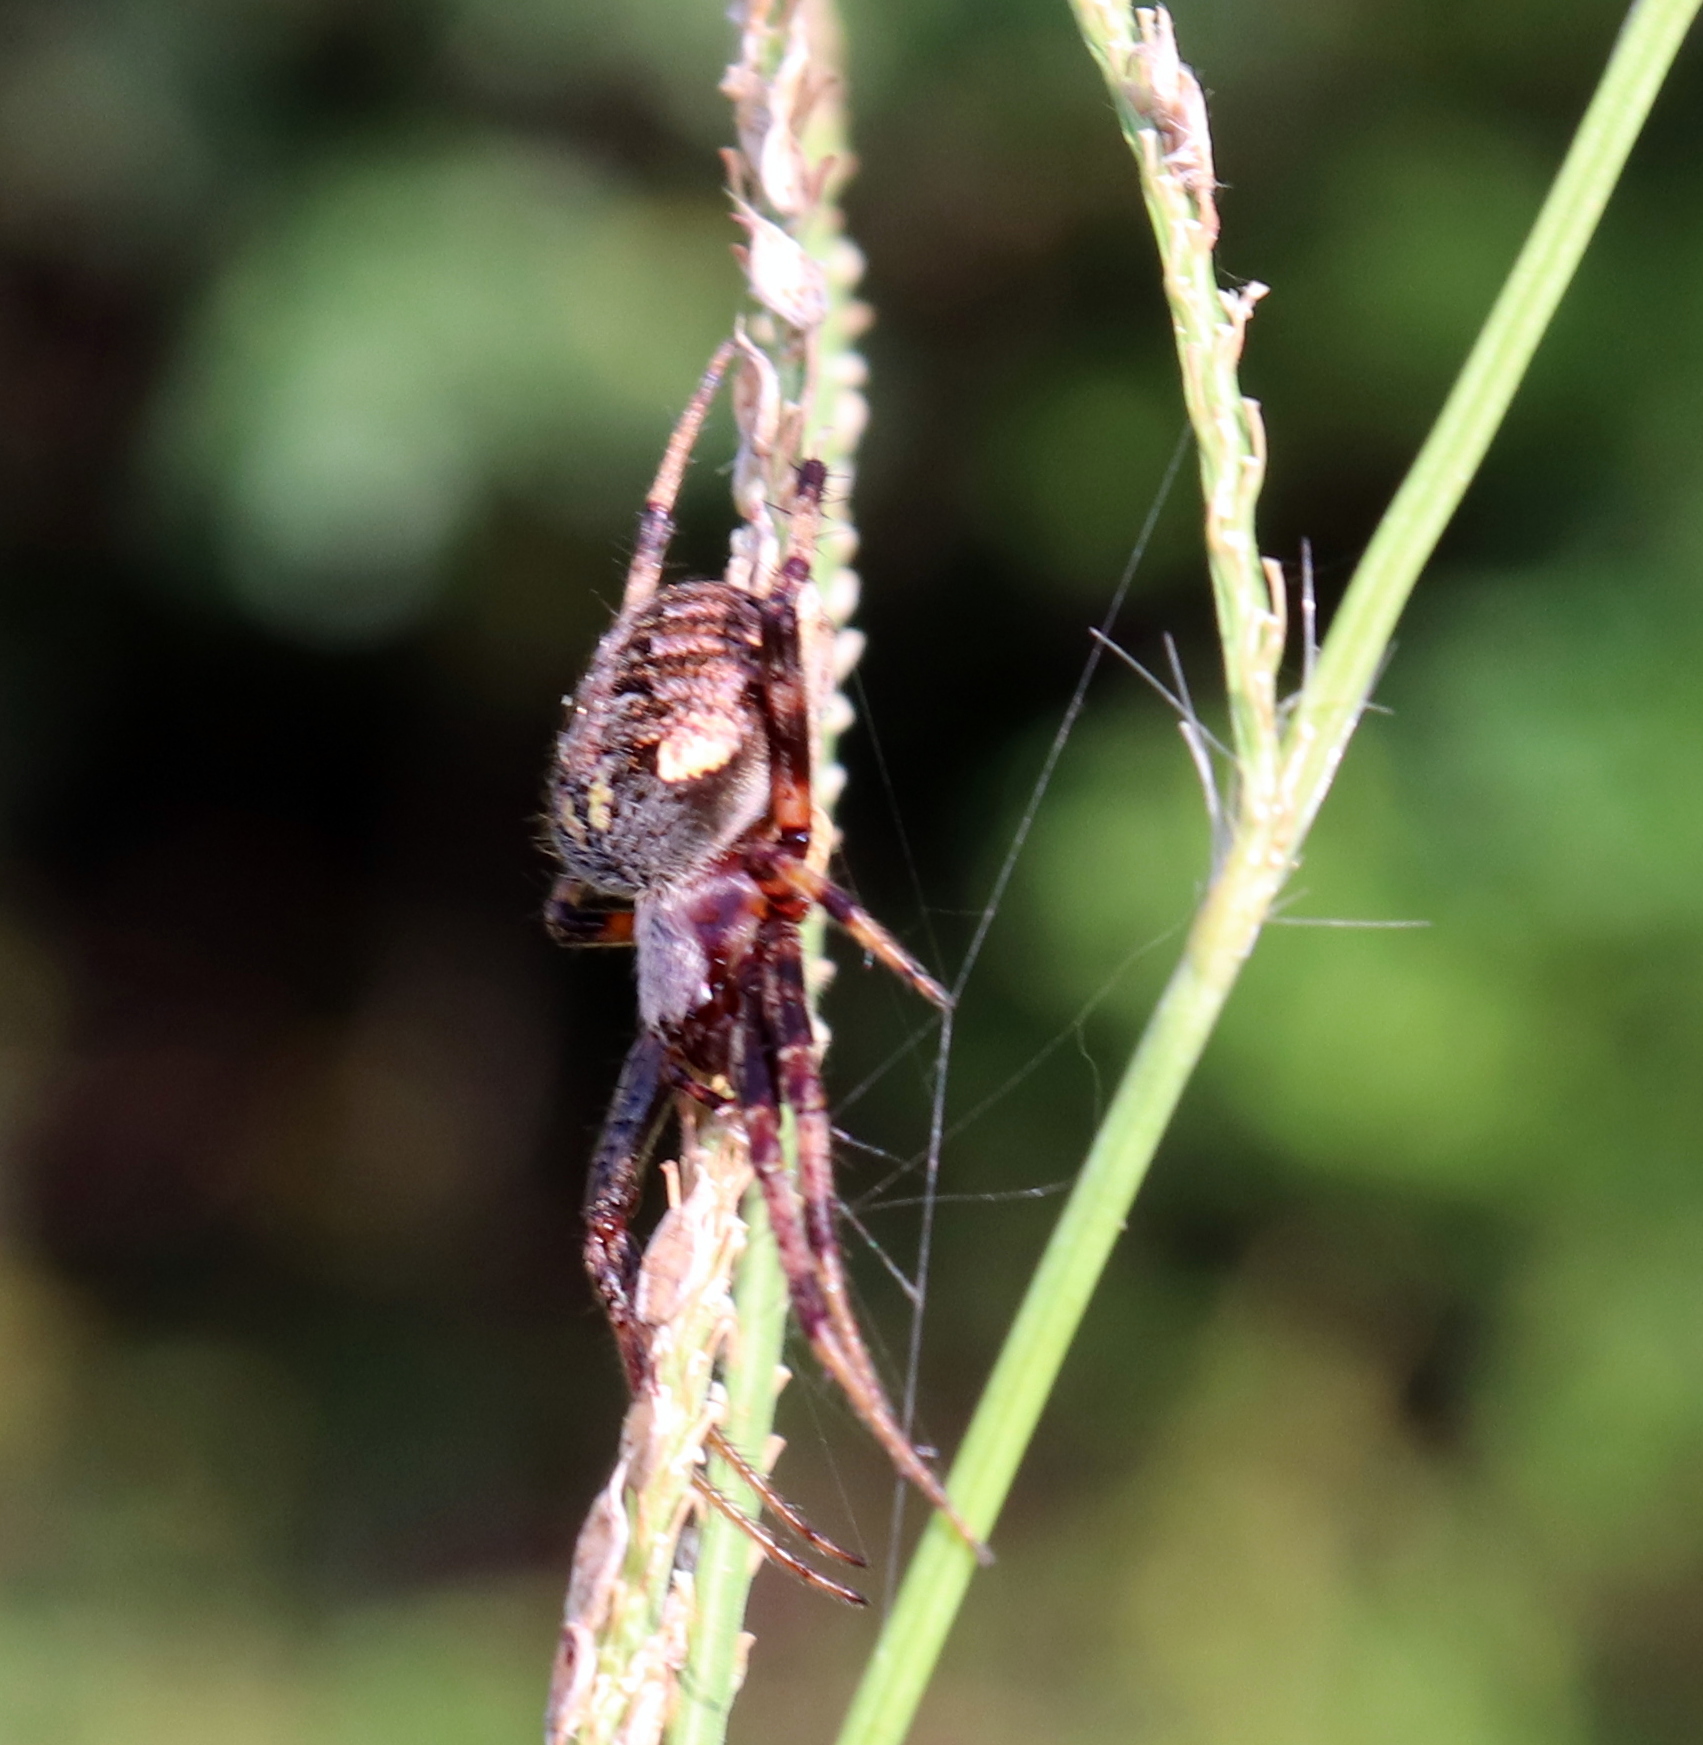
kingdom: Animalia
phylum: Arthropoda
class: Arachnida
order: Araneae
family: Araneidae
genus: Neoscona
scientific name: Neoscona arabesca
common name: Orb weavers
